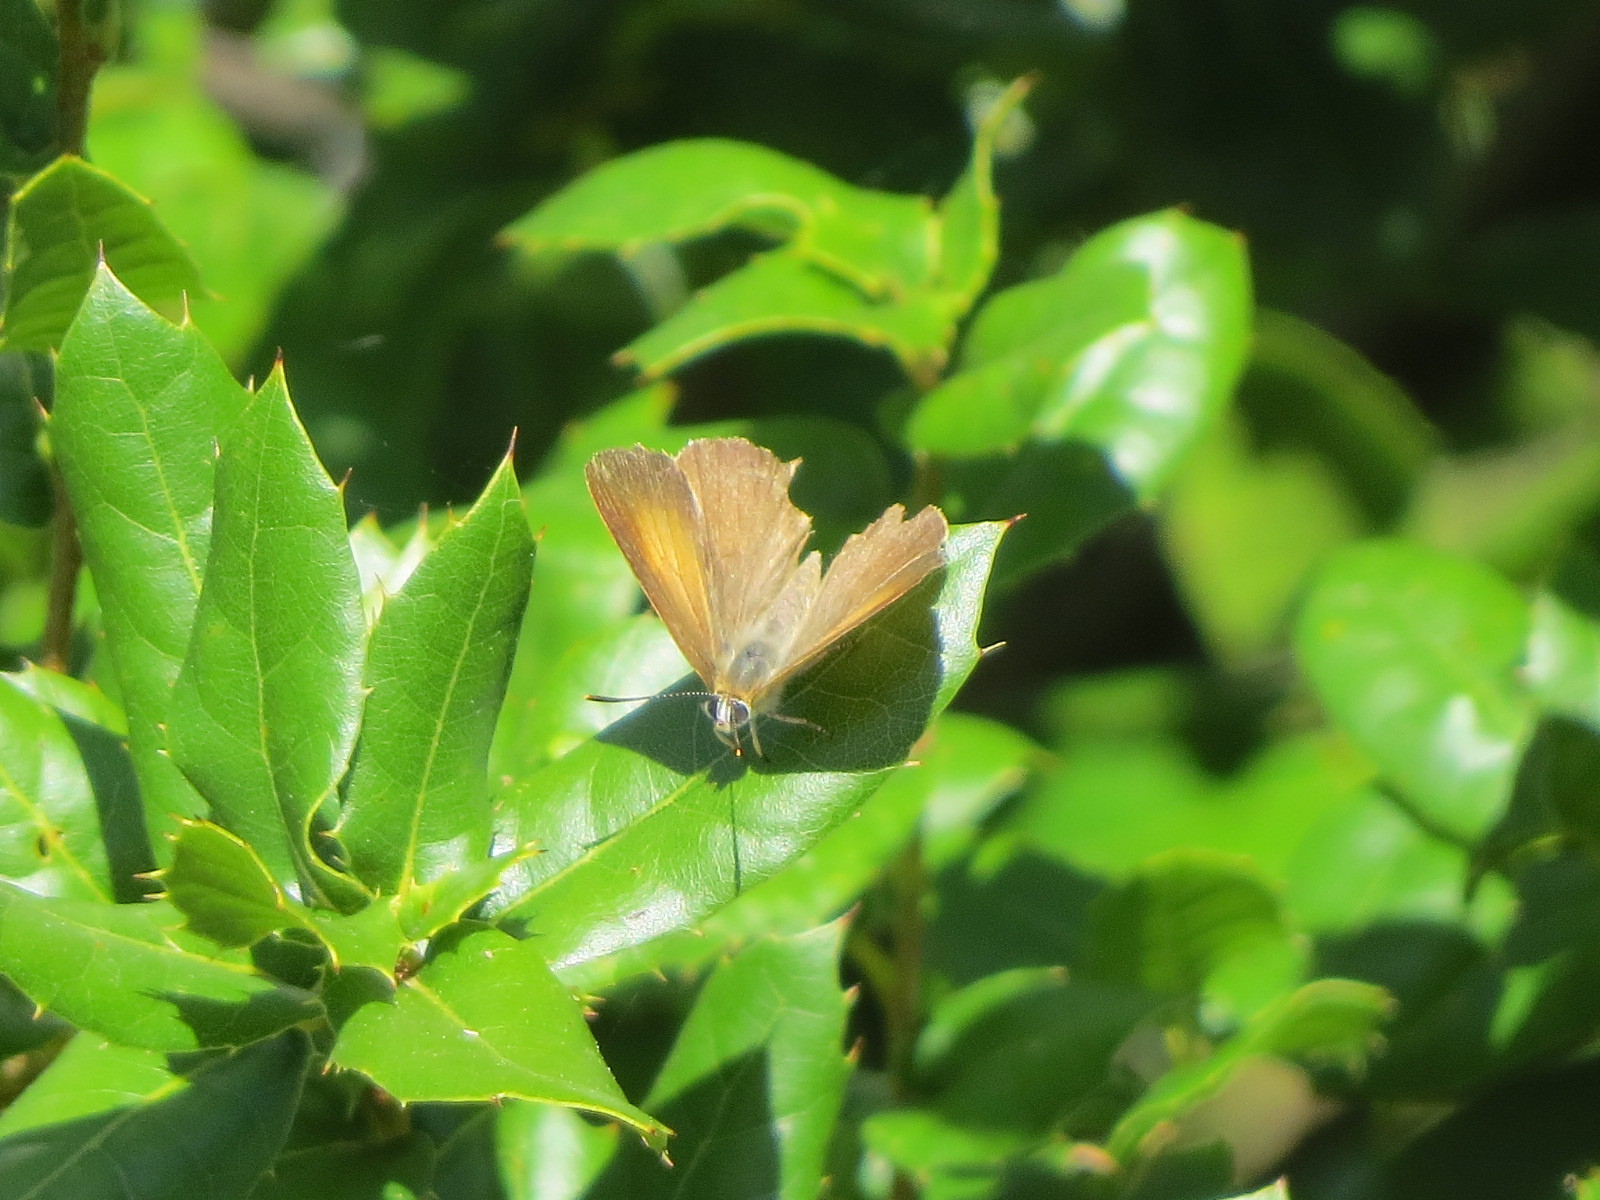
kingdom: Animalia
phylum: Arthropoda
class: Insecta
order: Lepidoptera
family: Lycaenidae
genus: Habrodais
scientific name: Habrodais grunus
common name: Golden hairstreak
